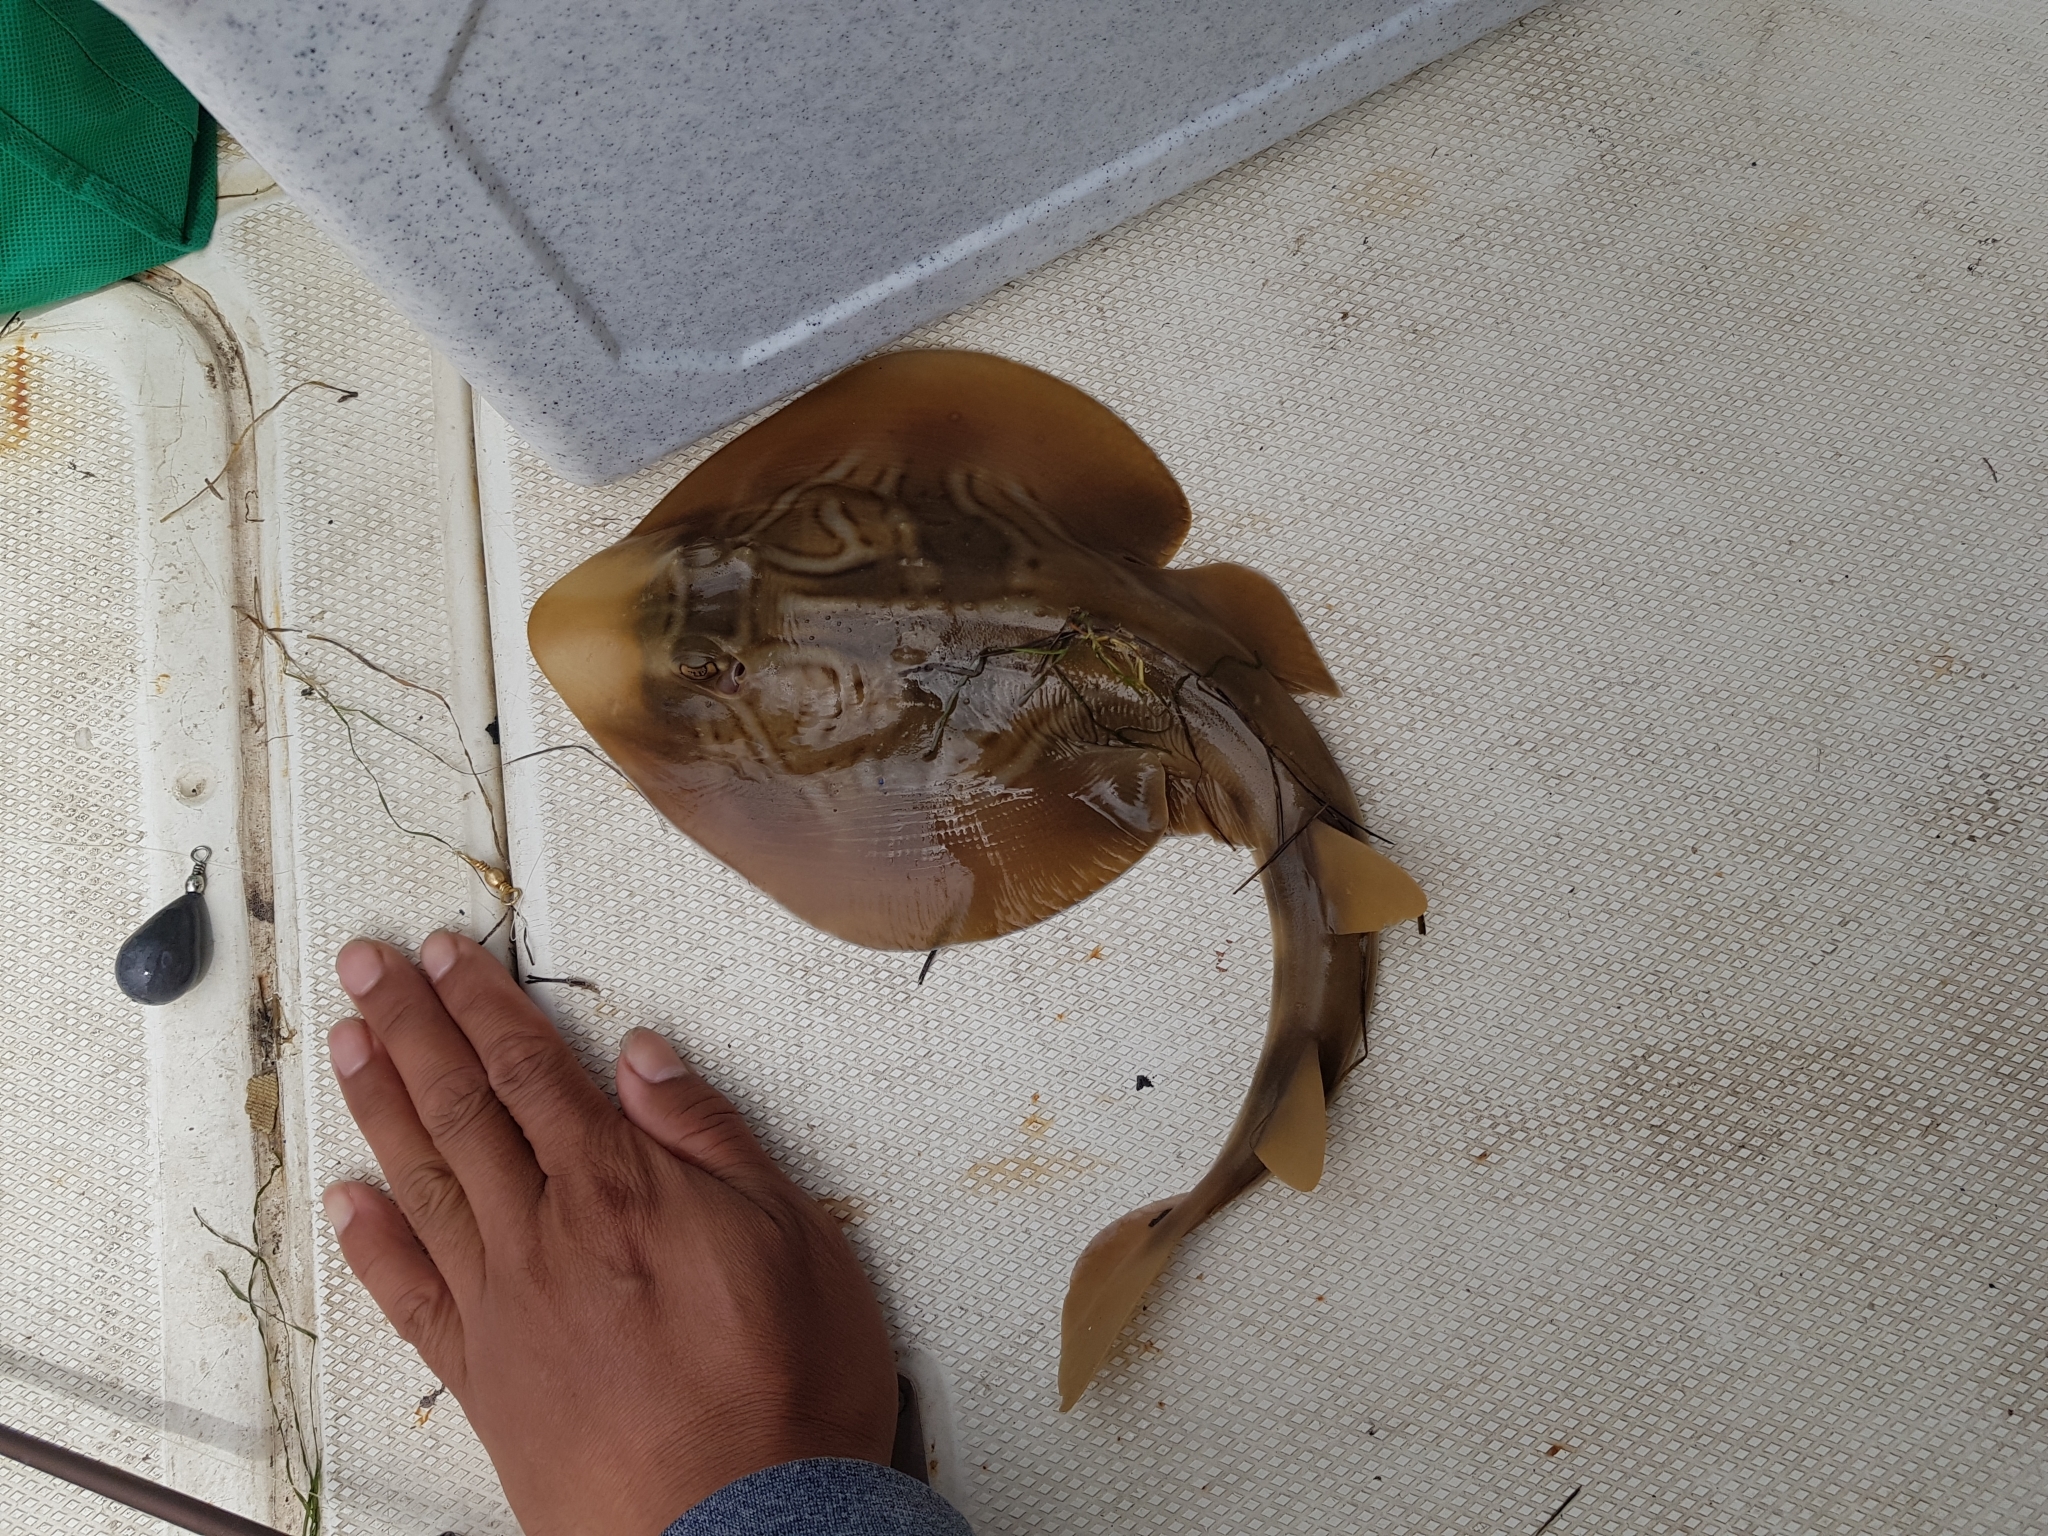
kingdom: Animalia
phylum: Chordata
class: Elasmobranchii
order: Rhinopristiformes
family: Rhinobatidae
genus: Trygonorrhina
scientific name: Trygonorrhina dumerilii
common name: Banjo shark
